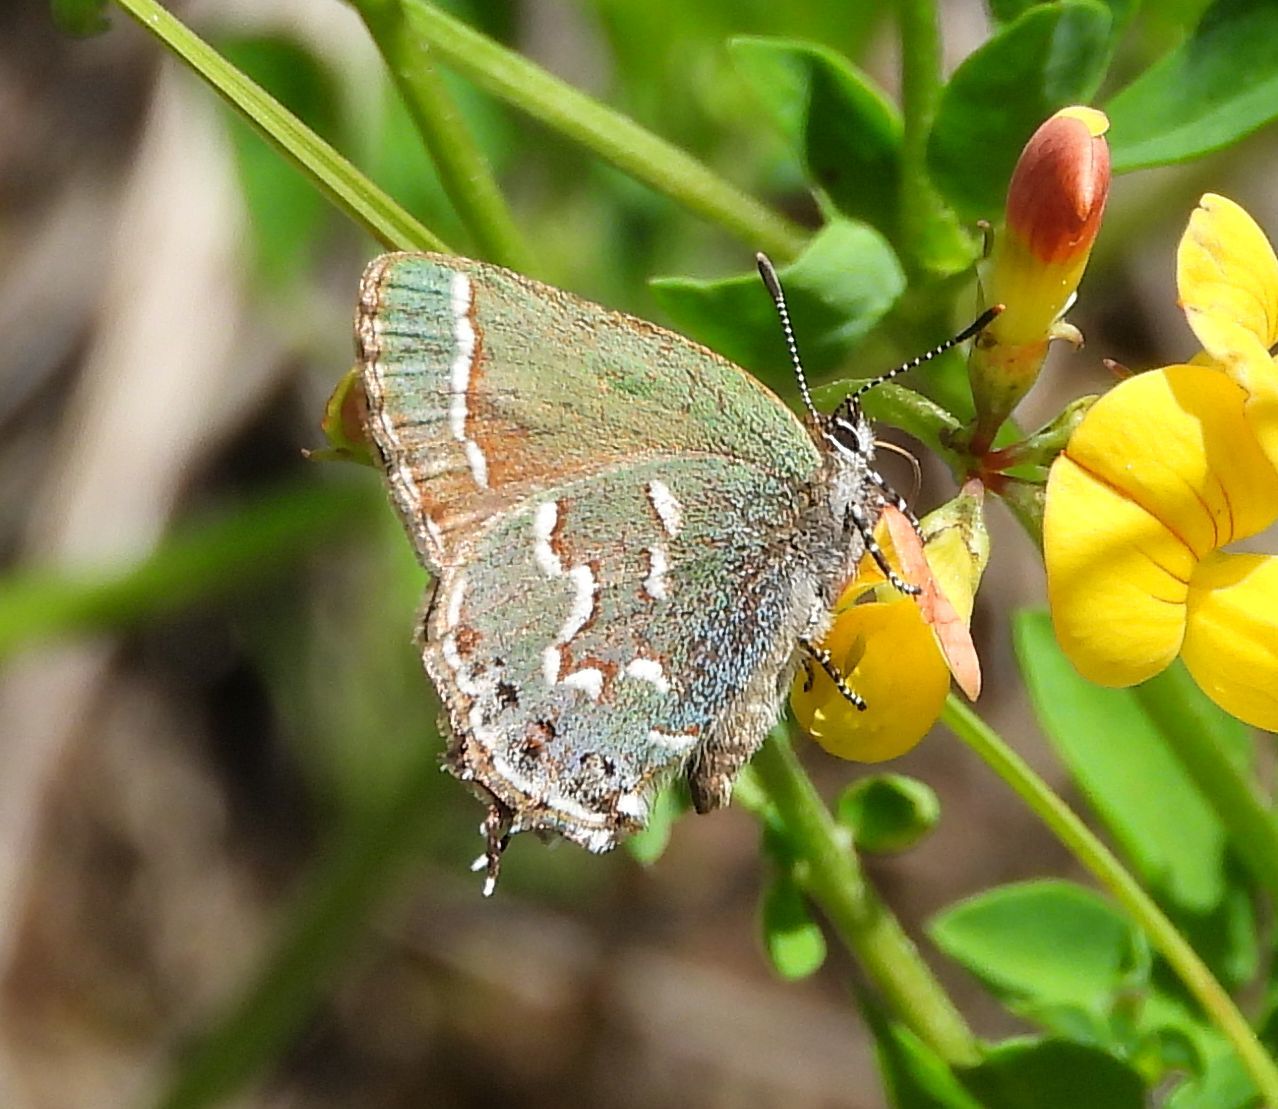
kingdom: Animalia
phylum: Arthropoda
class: Insecta
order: Lepidoptera
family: Lycaenidae
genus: Mitoura
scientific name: Mitoura gryneus
